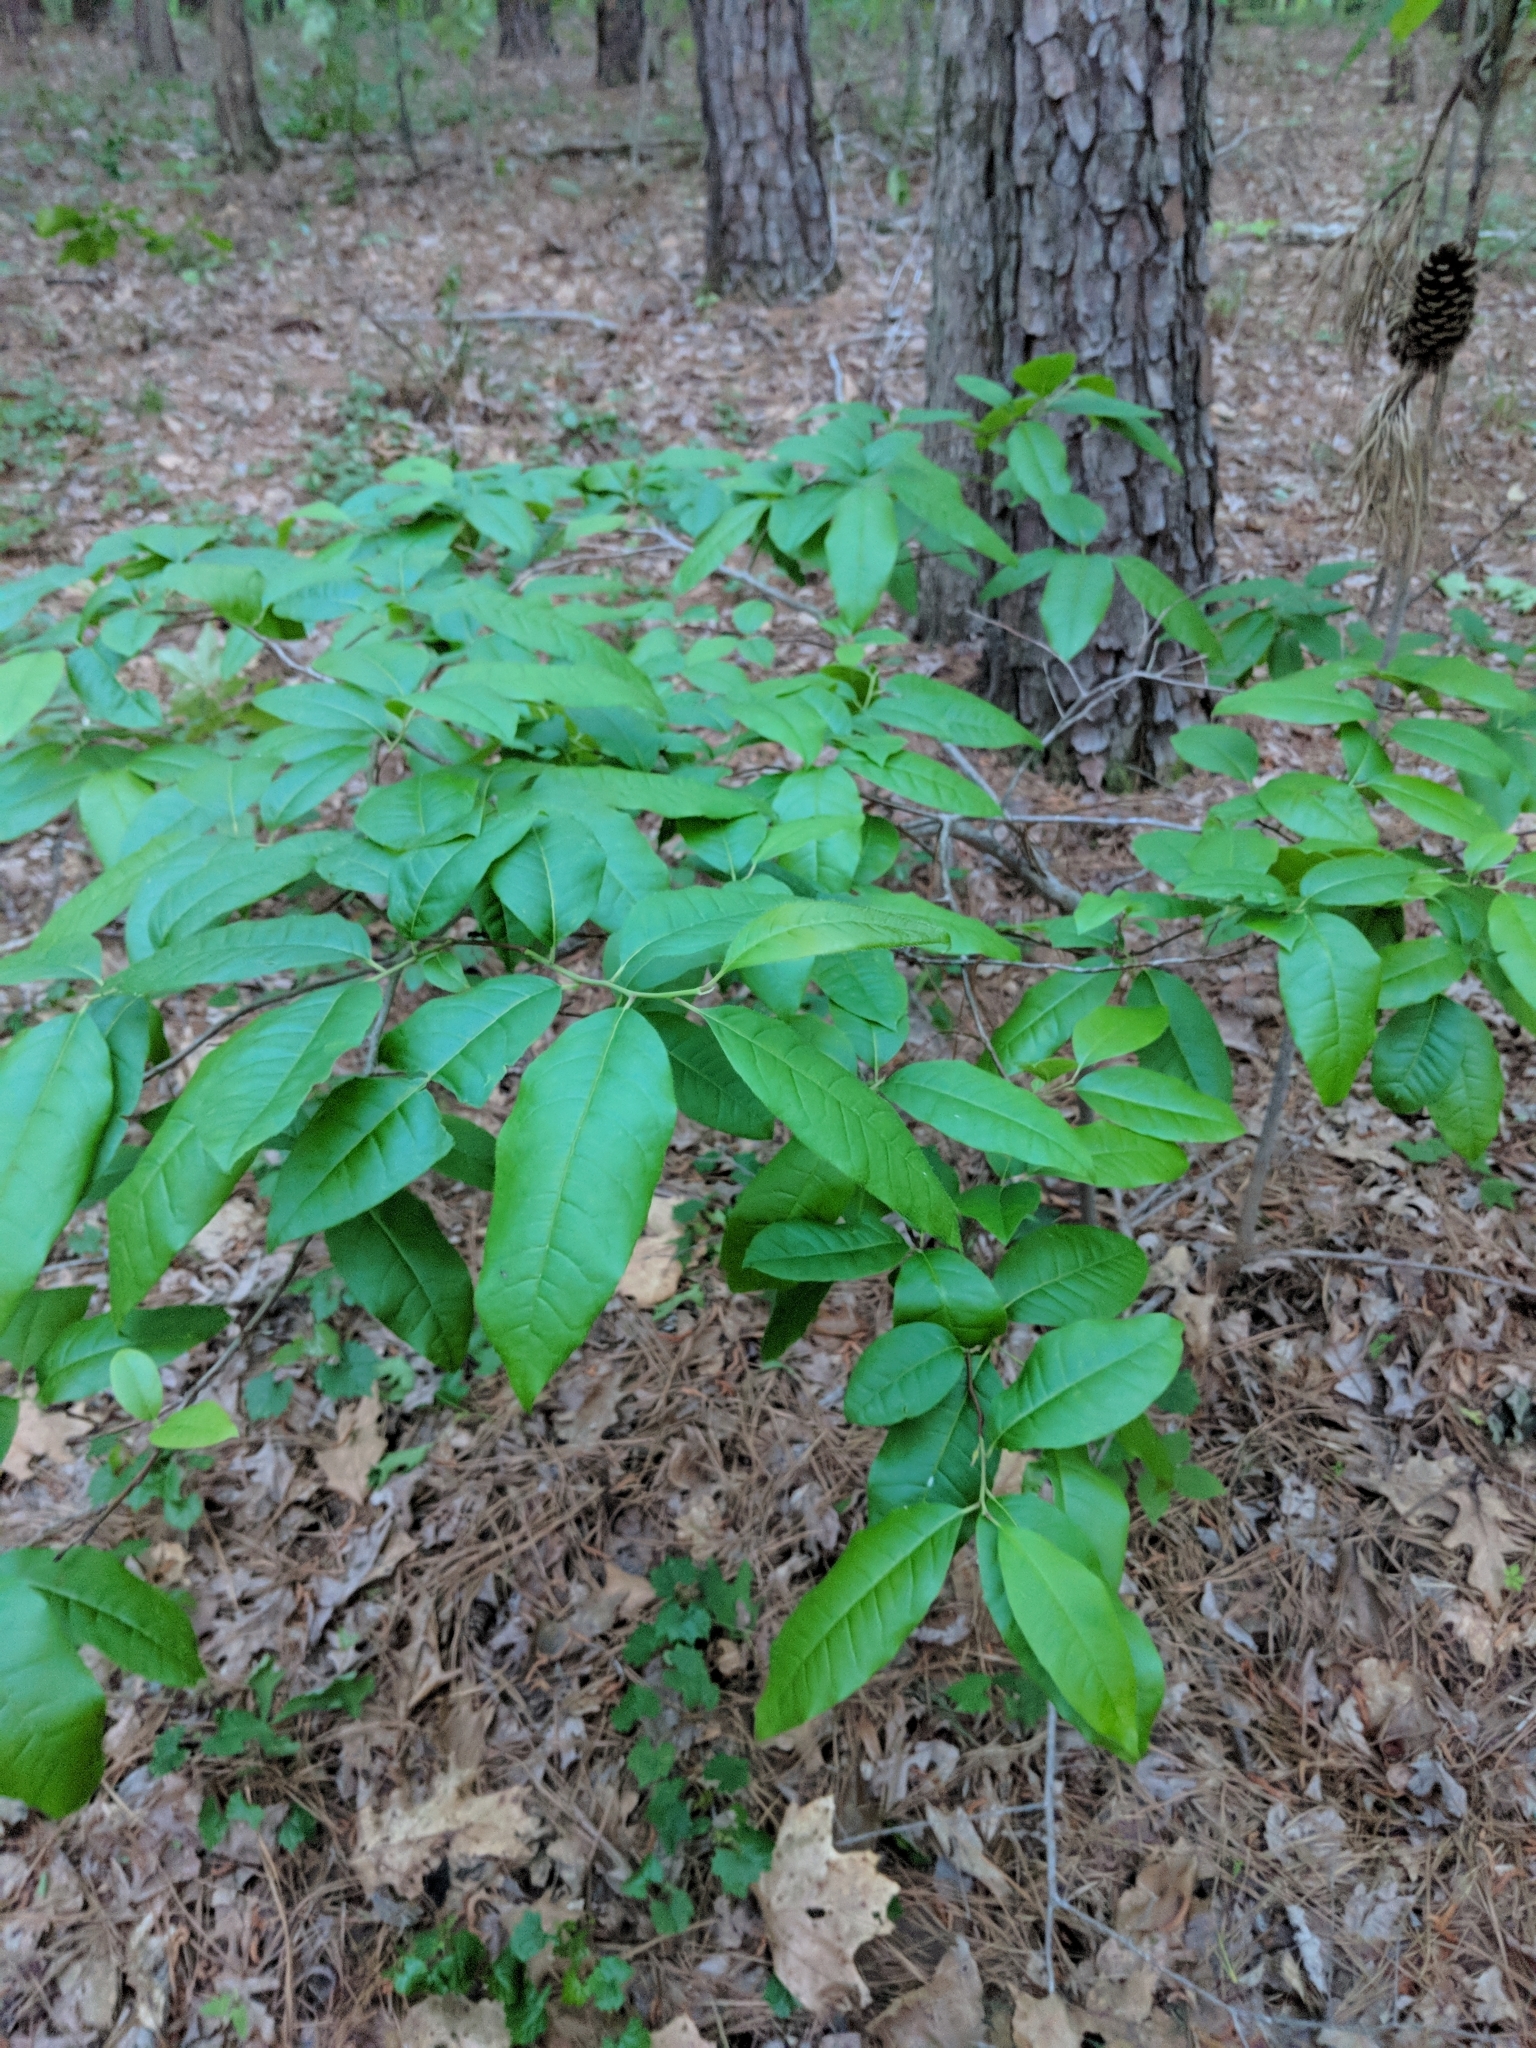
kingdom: Plantae
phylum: Tracheophyta
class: Magnoliopsida
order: Ericales
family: Ericaceae
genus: Oxydendrum
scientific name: Oxydendrum arboreum
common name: Sourwood
